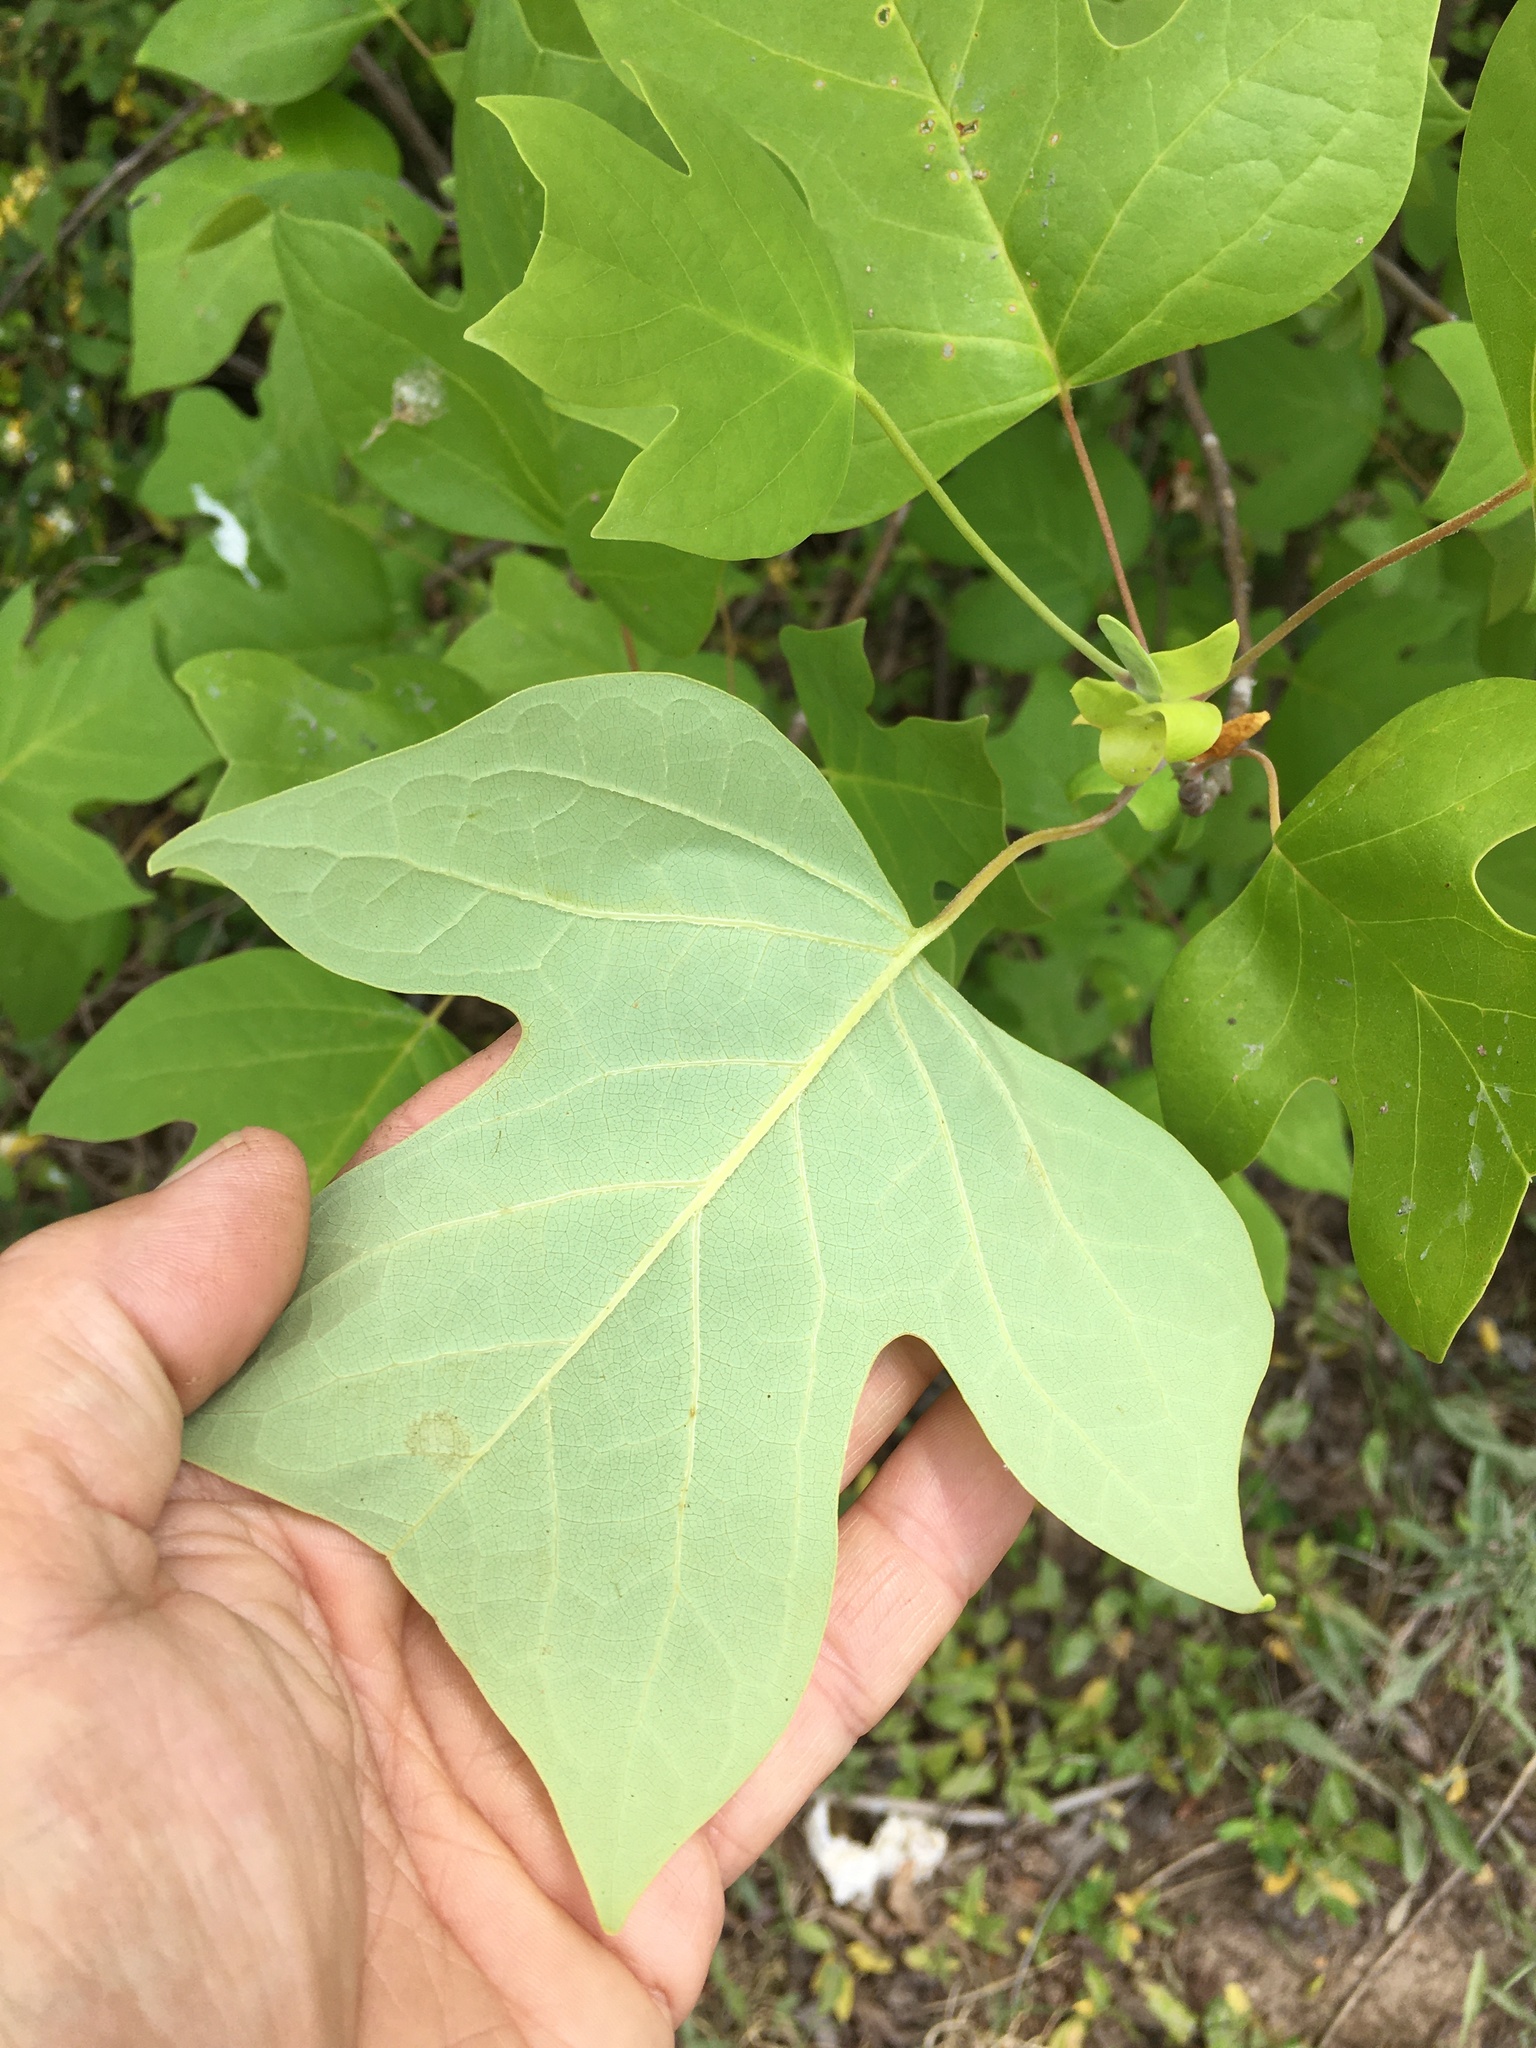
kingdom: Plantae
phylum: Tracheophyta
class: Magnoliopsida
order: Magnoliales
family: Magnoliaceae
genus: Liriodendron
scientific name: Liriodendron tulipifera
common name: Tulip tree
